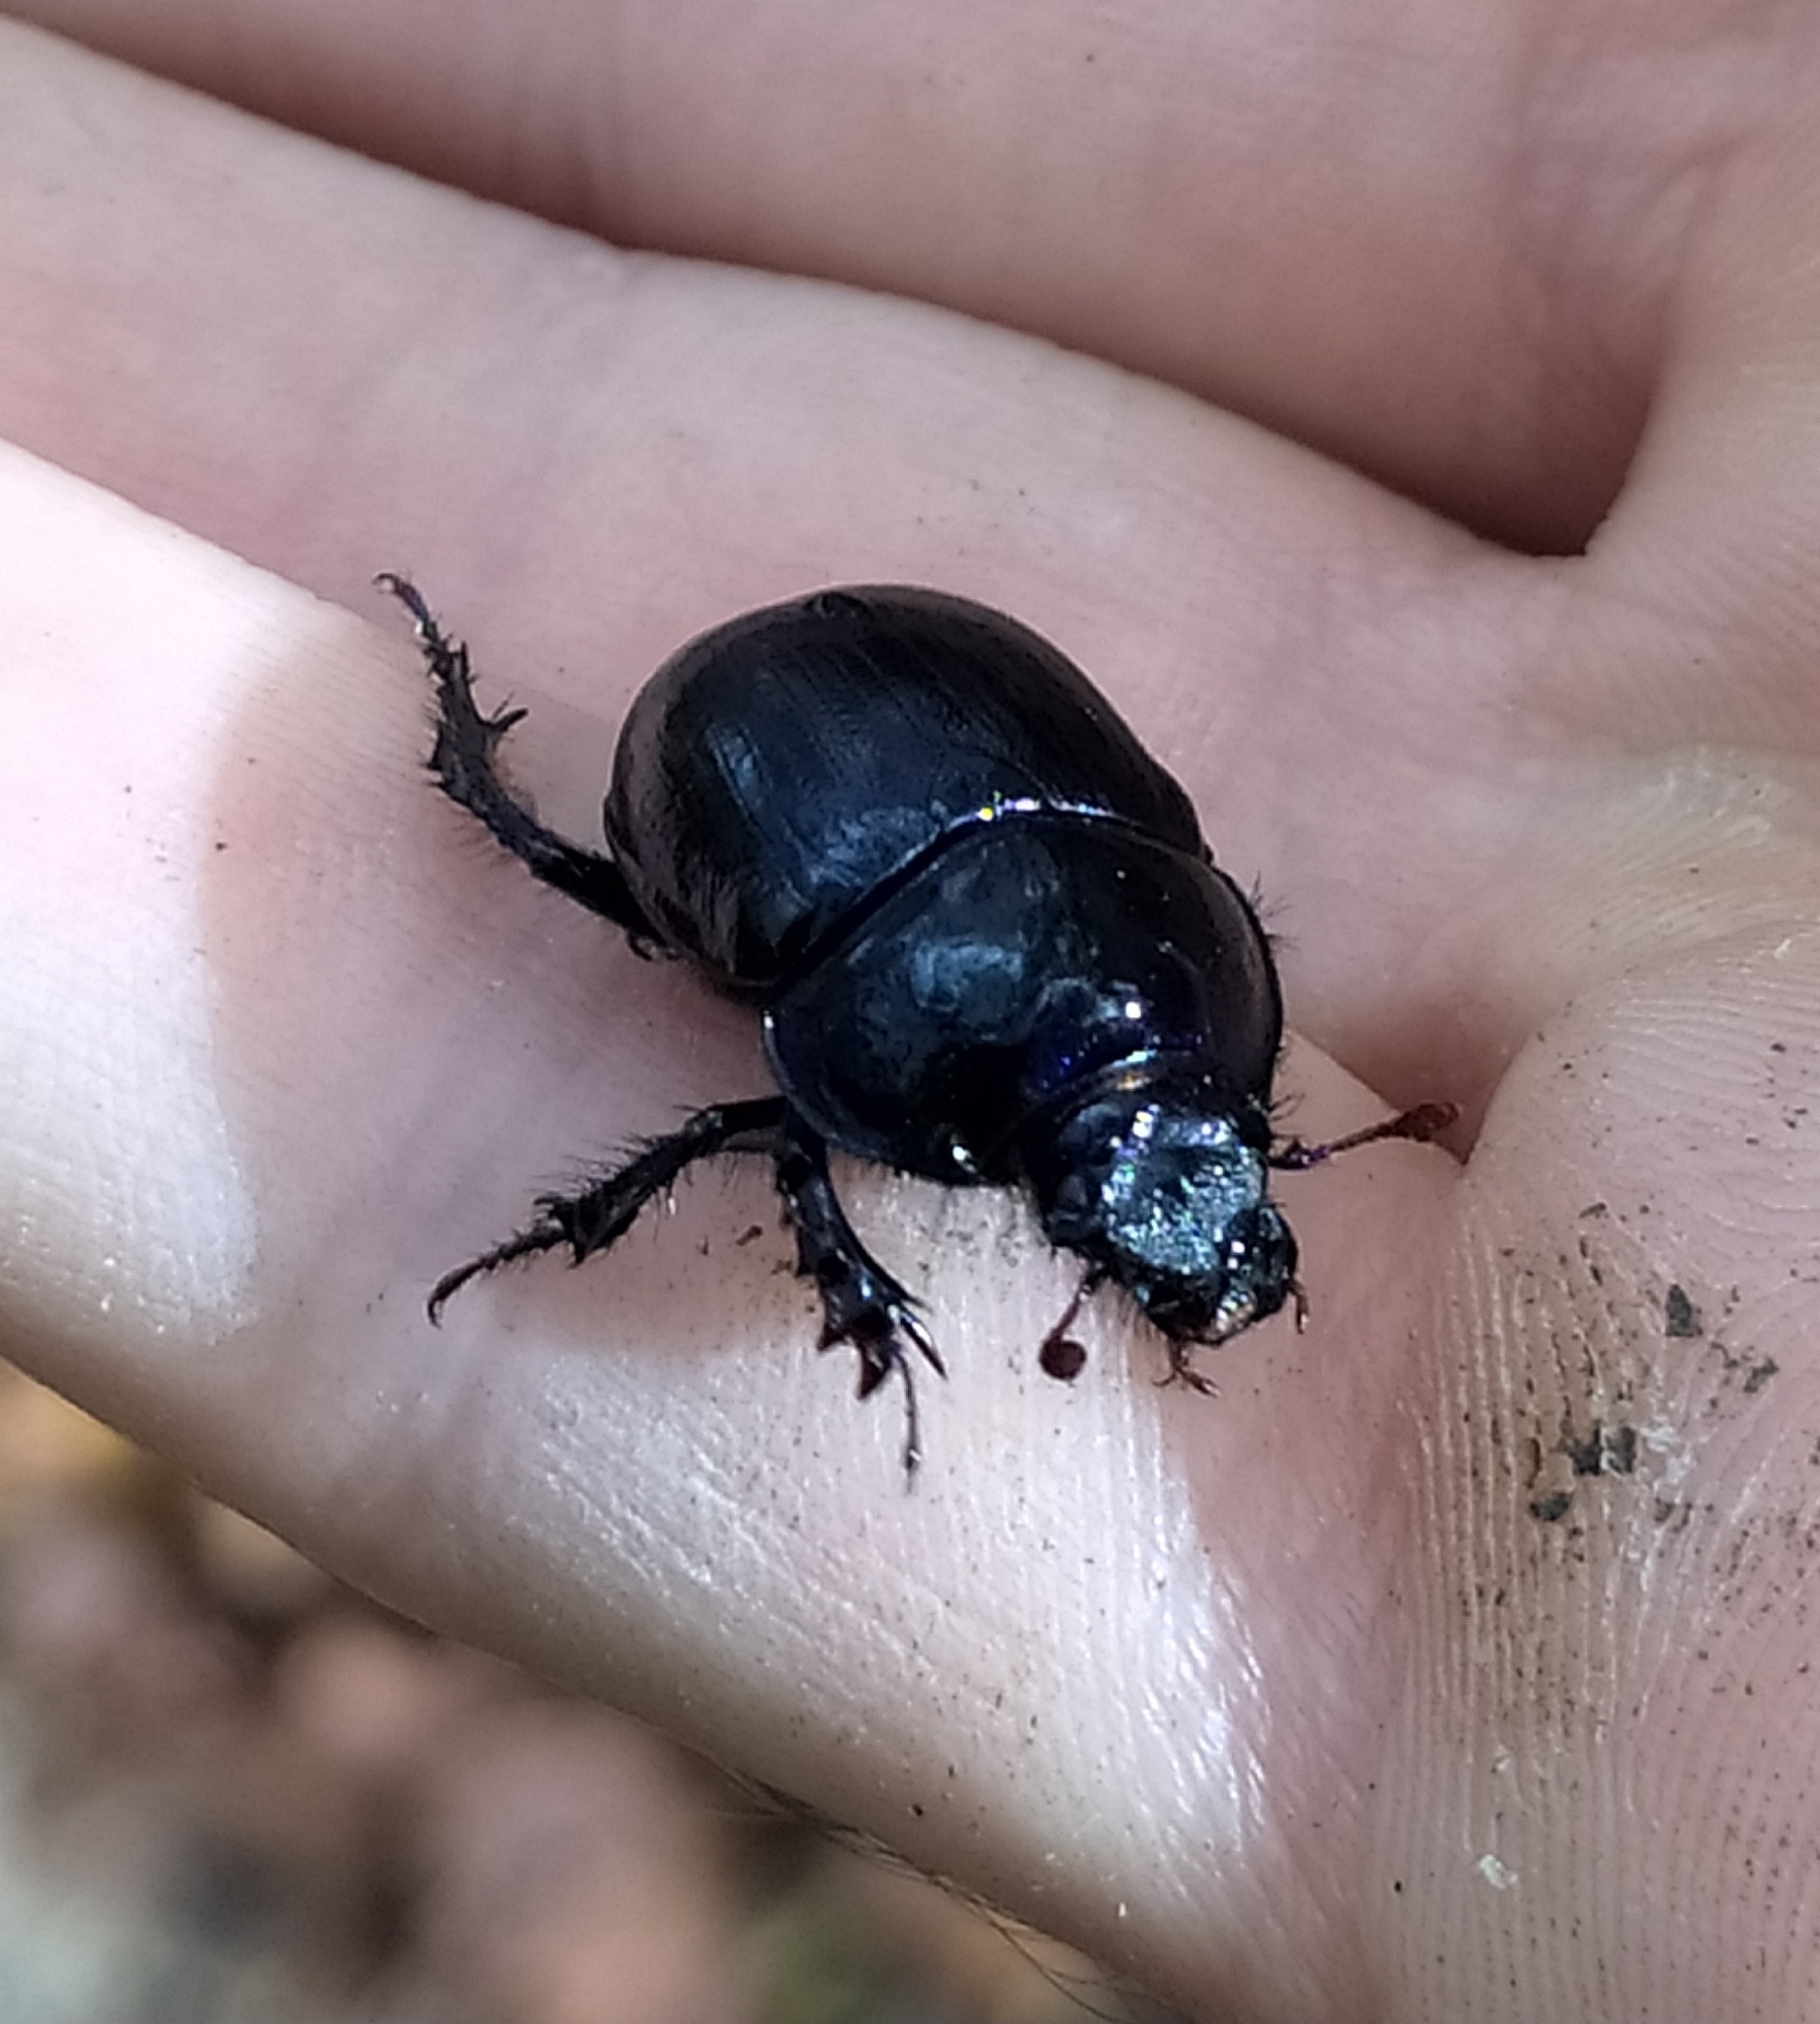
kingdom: Animalia
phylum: Arthropoda
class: Insecta
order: Coleoptera
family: Geotrupidae
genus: Anoplotrupes
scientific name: Anoplotrupes stercorosus
